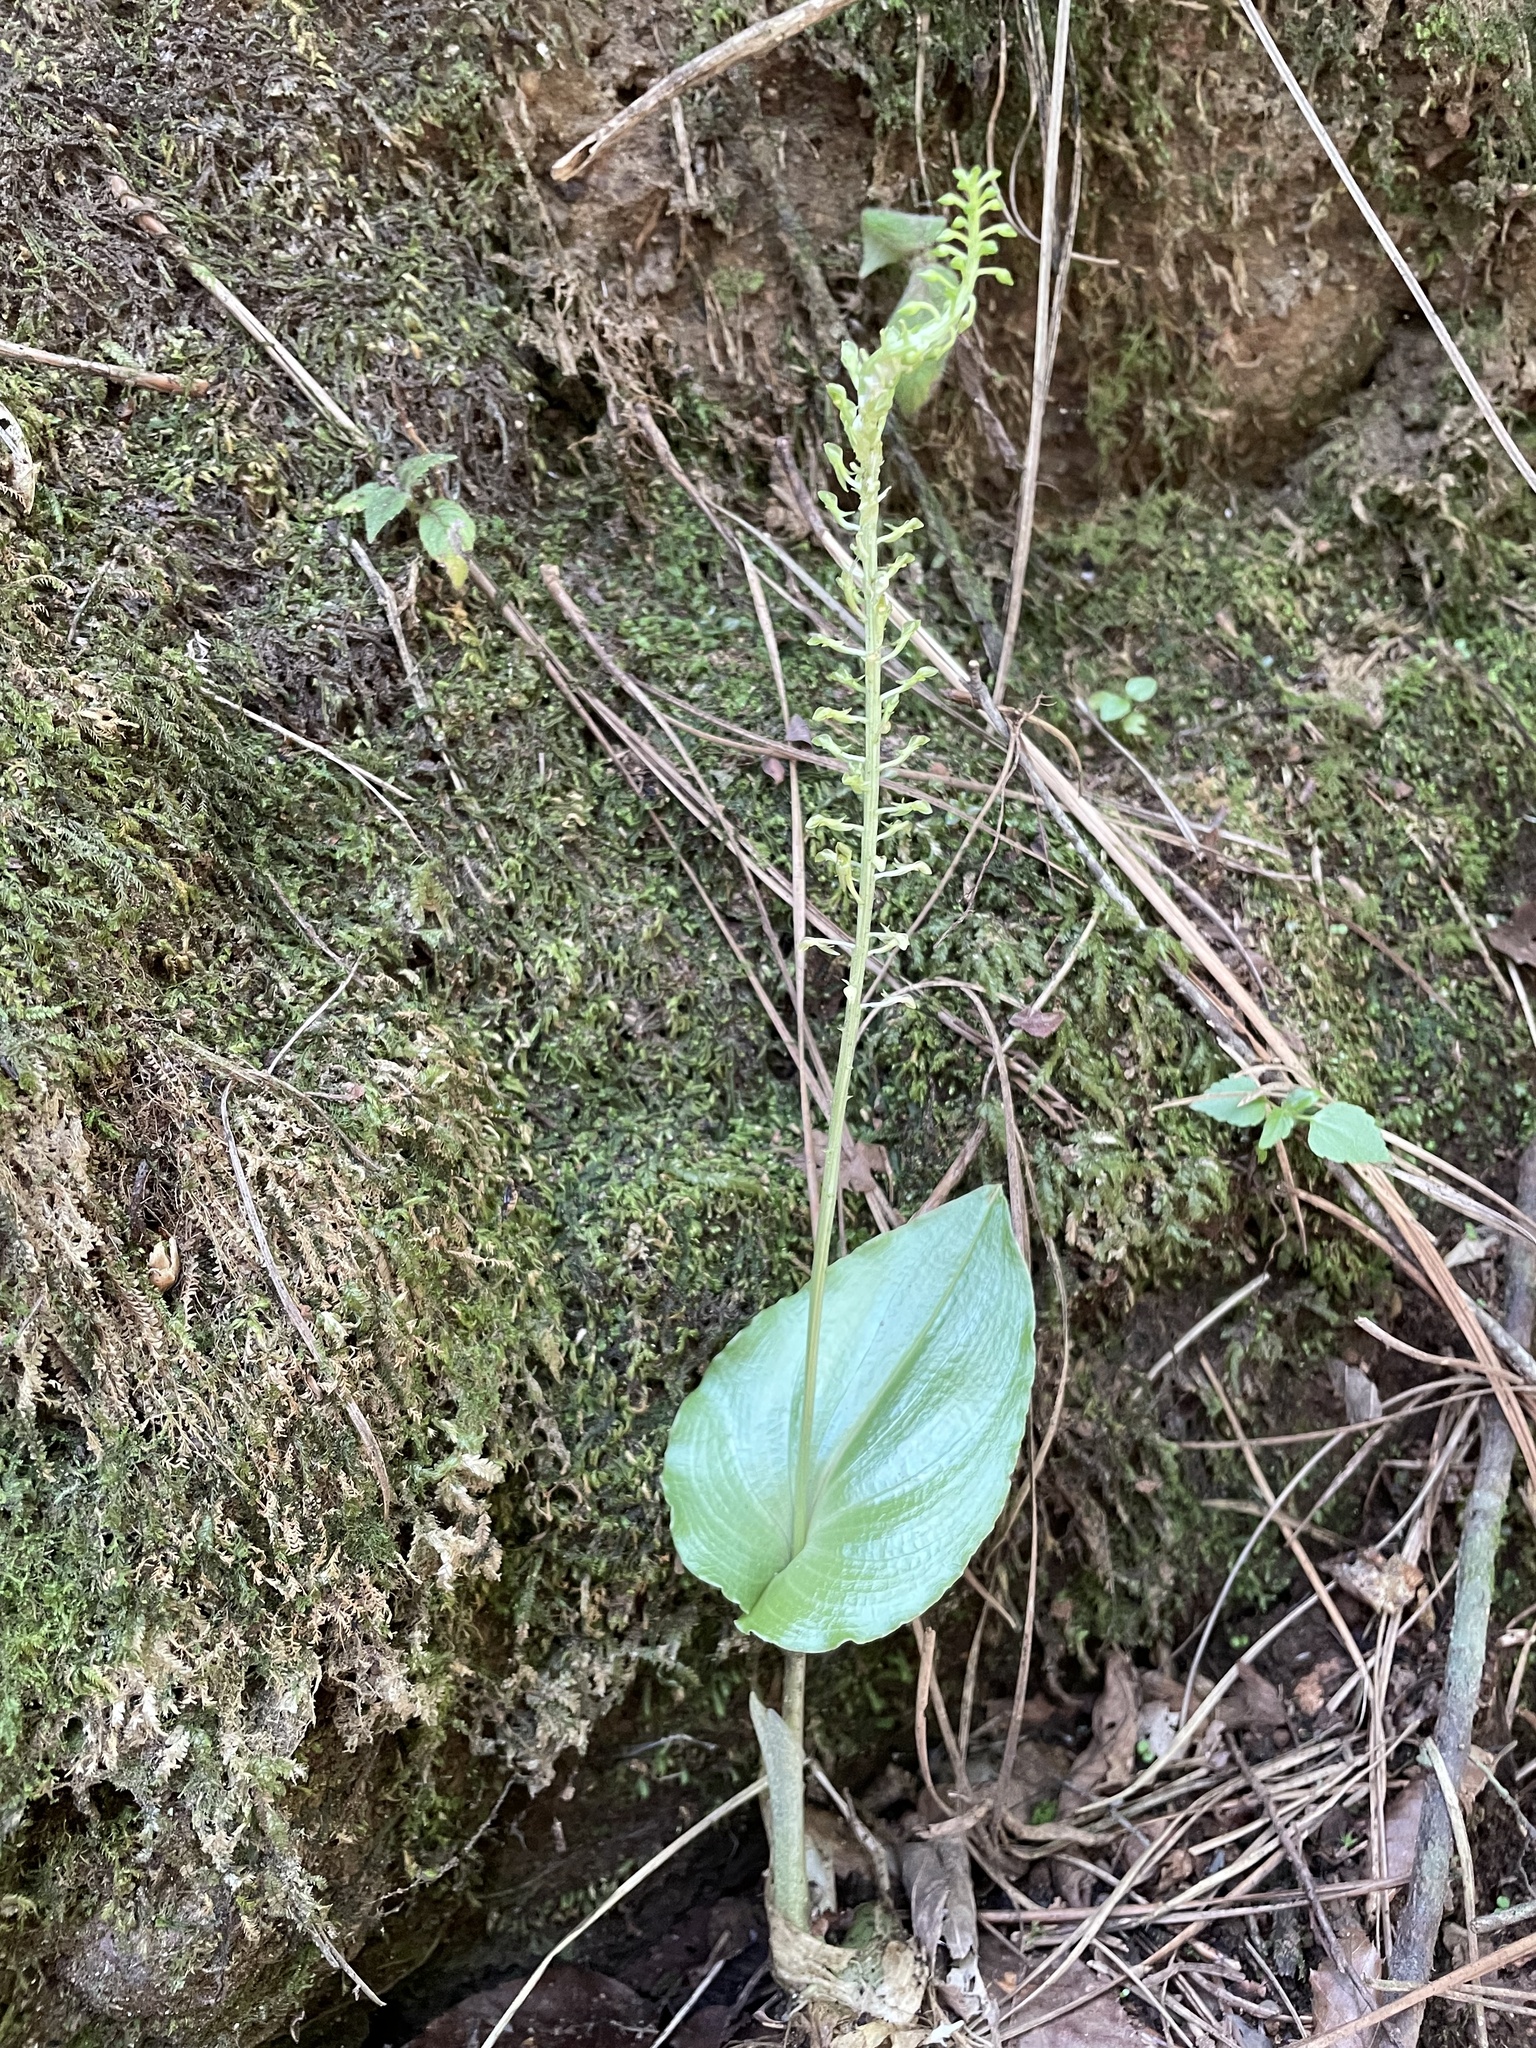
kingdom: Plantae
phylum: Tracheophyta
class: Liliopsida
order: Asparagales
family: Orchidaceae
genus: Malaxis
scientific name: Malaxis maianthemifolia
